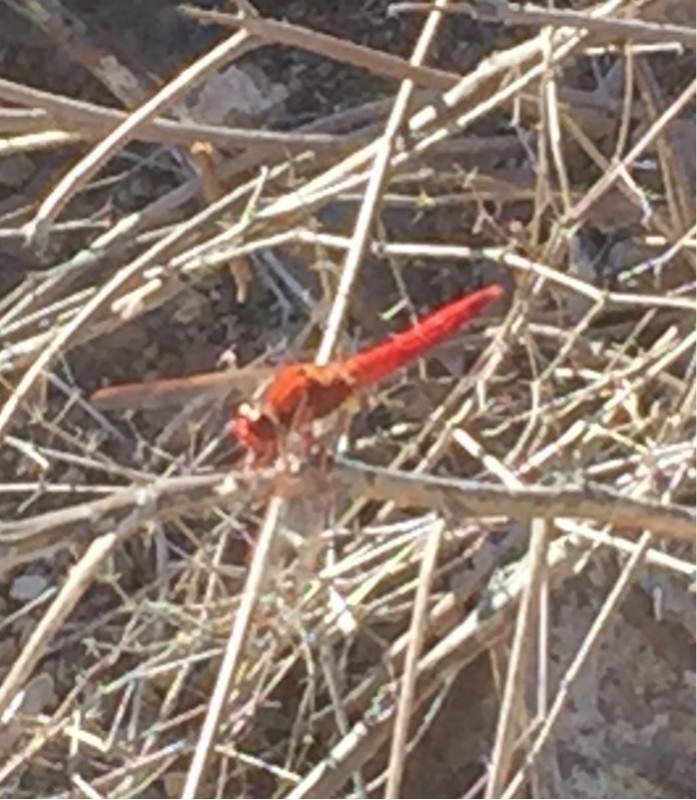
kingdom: Animalia
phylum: Arthropoda
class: Insecta
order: Odonata
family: Libellulidae
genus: Crocothemis
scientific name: Crocothemis erythraea
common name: Scarlet dragonfly
